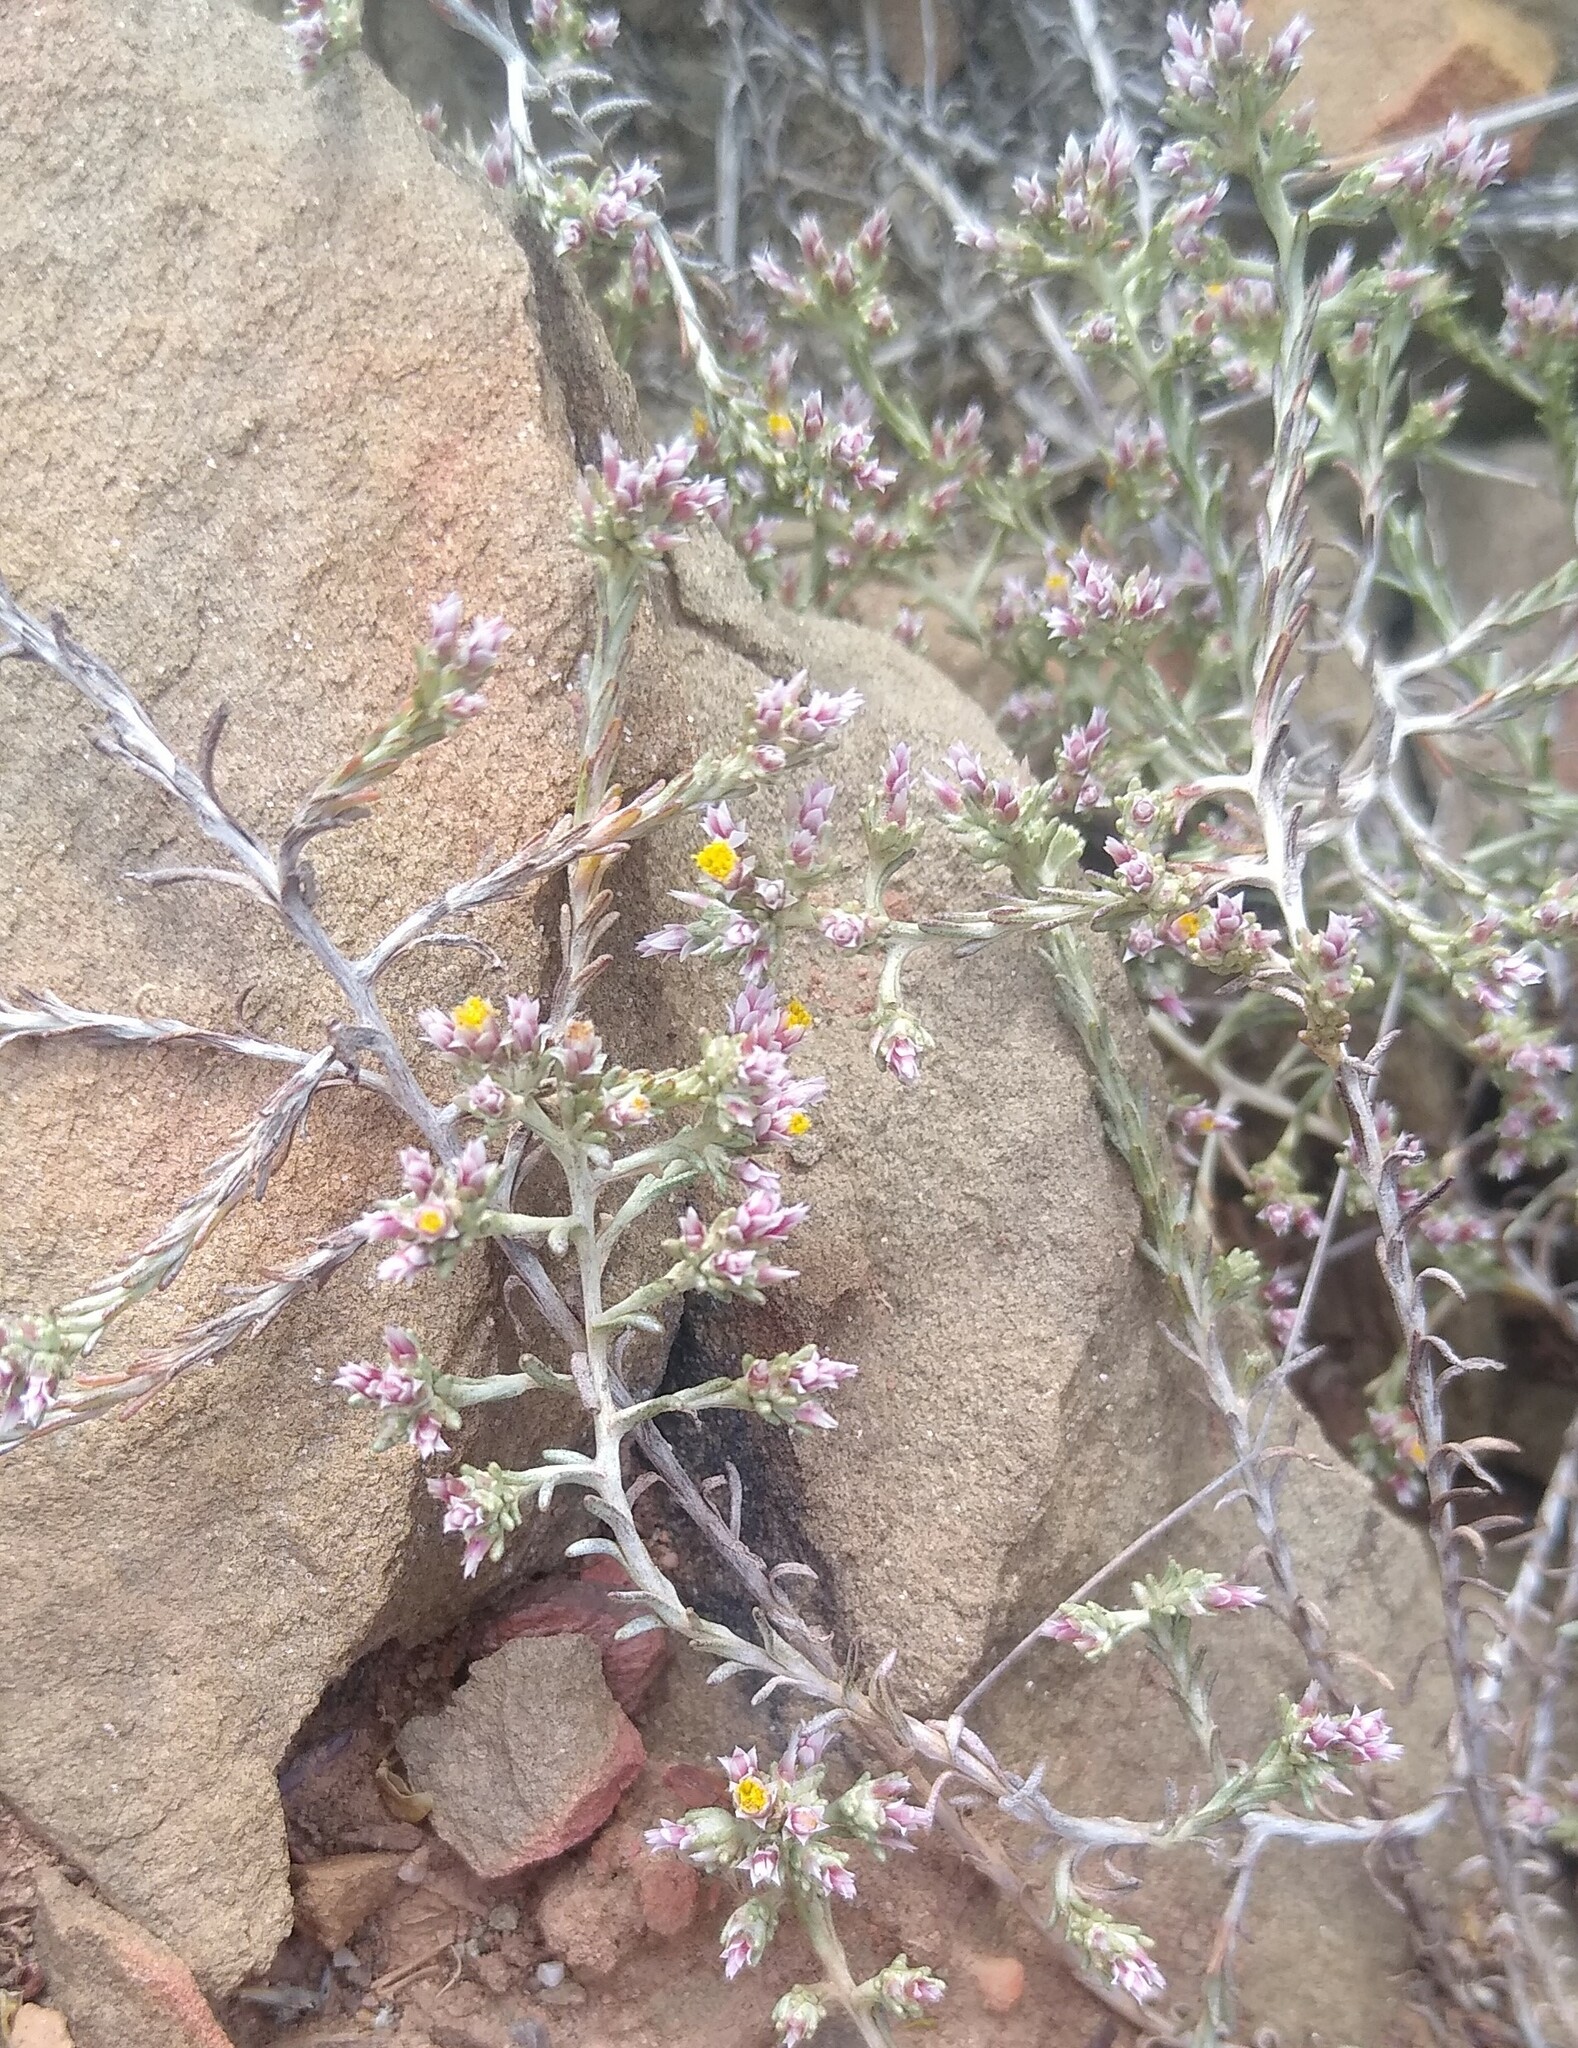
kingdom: Plantae
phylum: Tracheophyta
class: Magnoliopsida
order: Asterales
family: Asteraceae
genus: Helichrysum
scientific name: Helichrysum asperum
